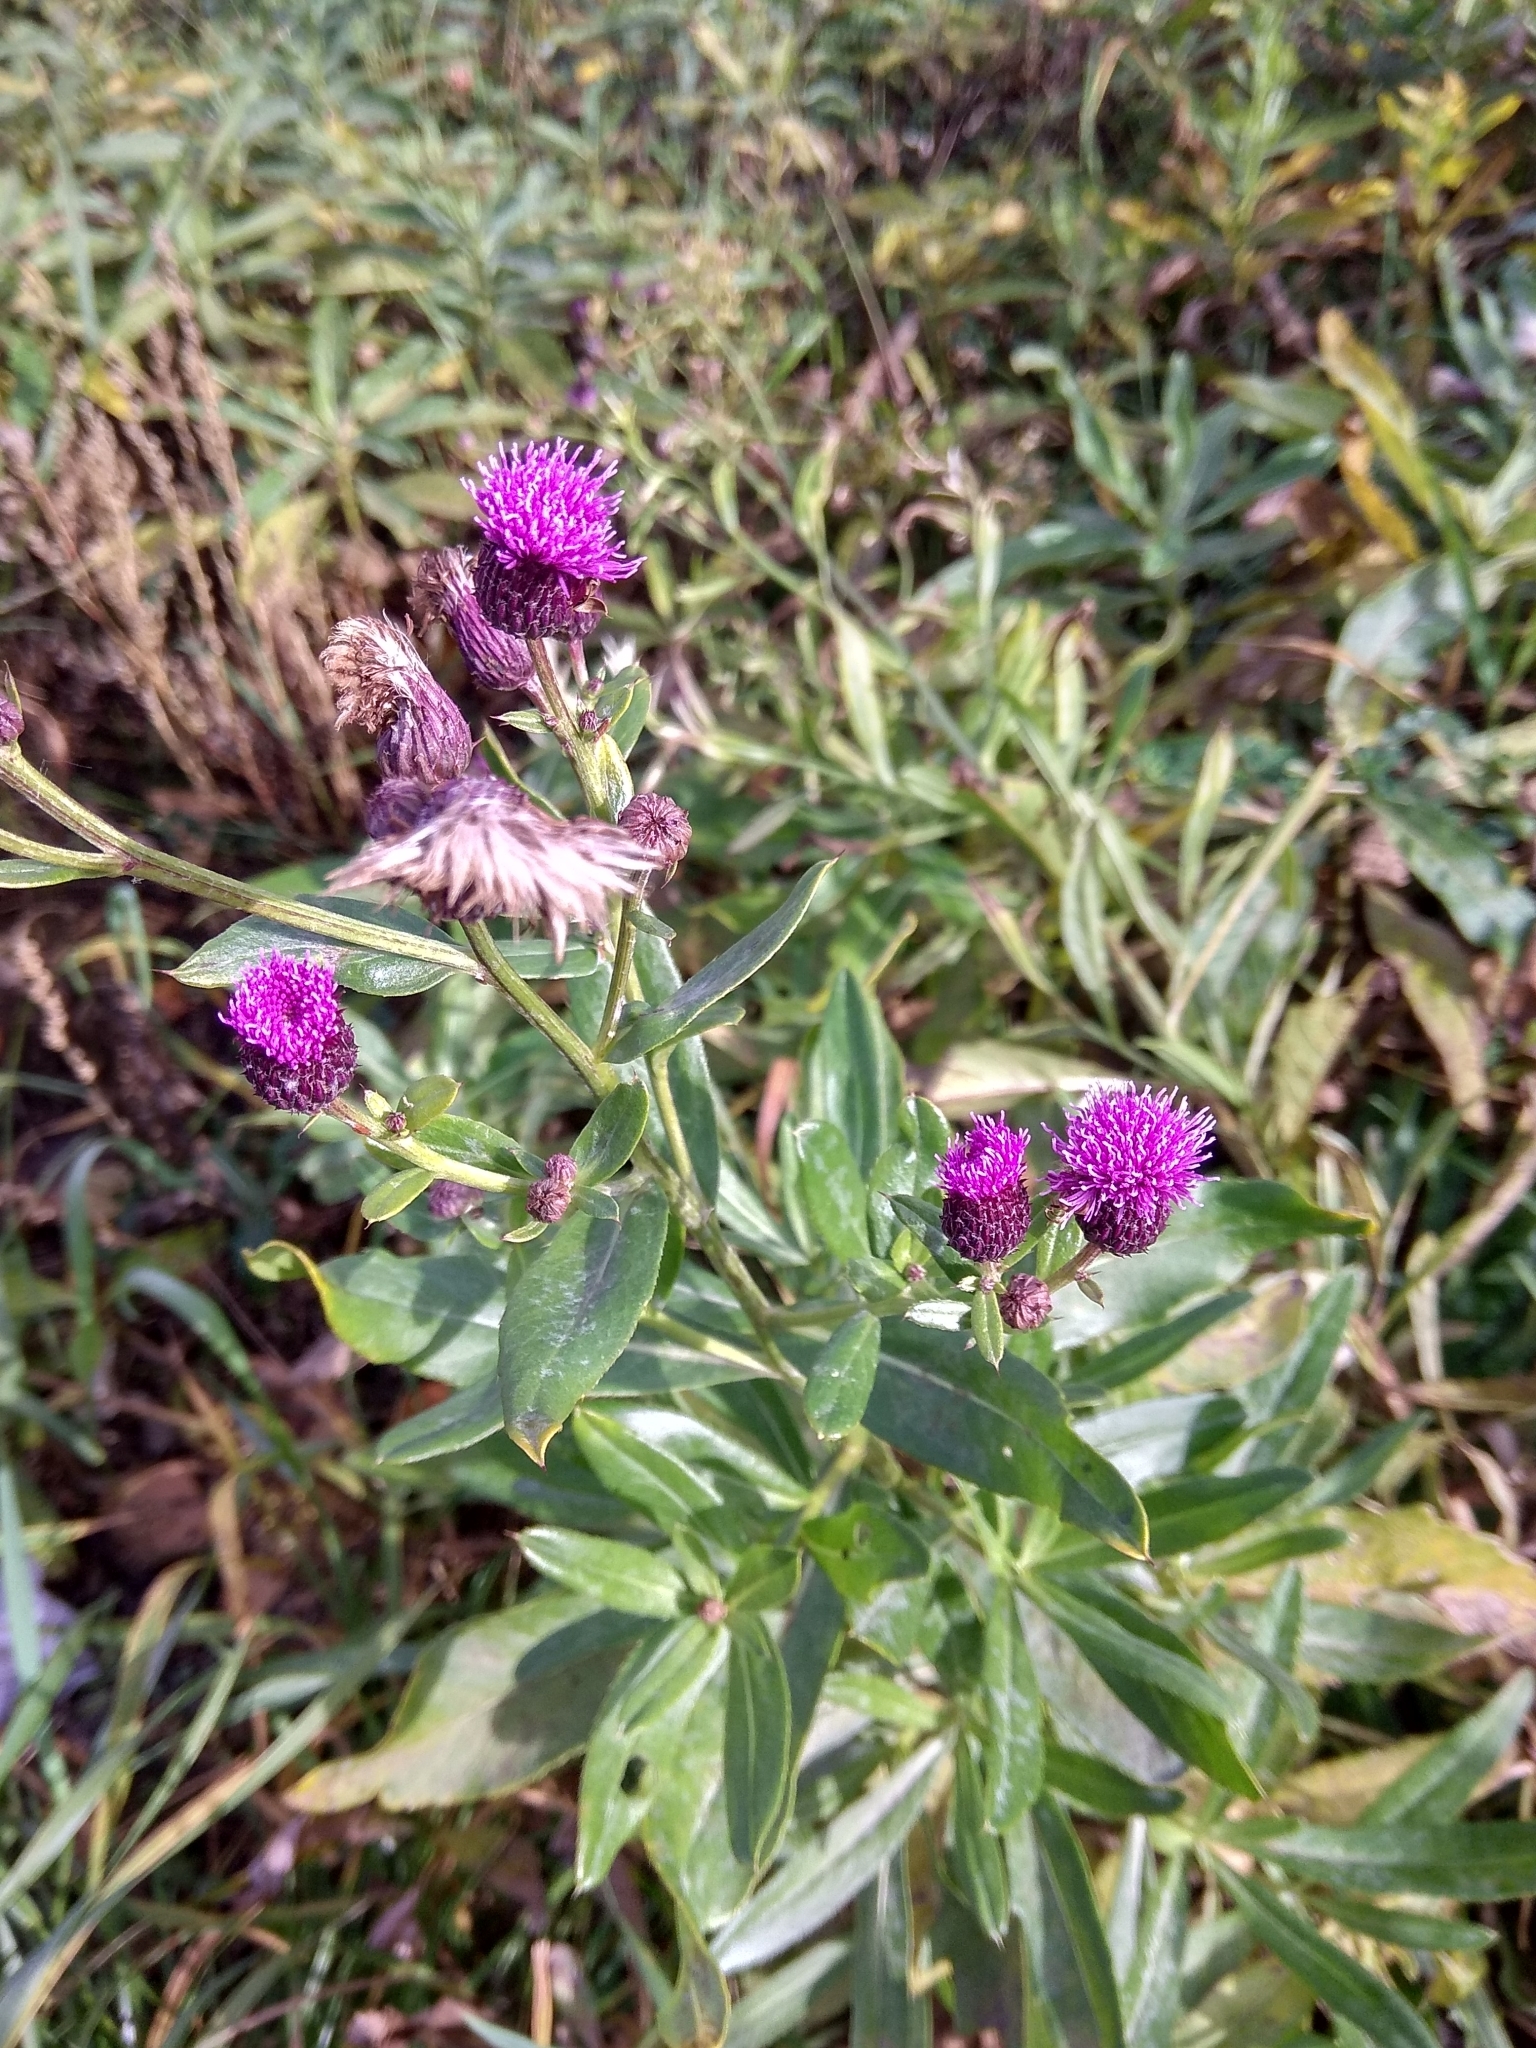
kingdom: Plantae
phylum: Tracheophyta
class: Magnoliopsida
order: Asterales
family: Asteraceae
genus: Cirsium
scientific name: Cirsium arvense
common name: Creeping thistle
